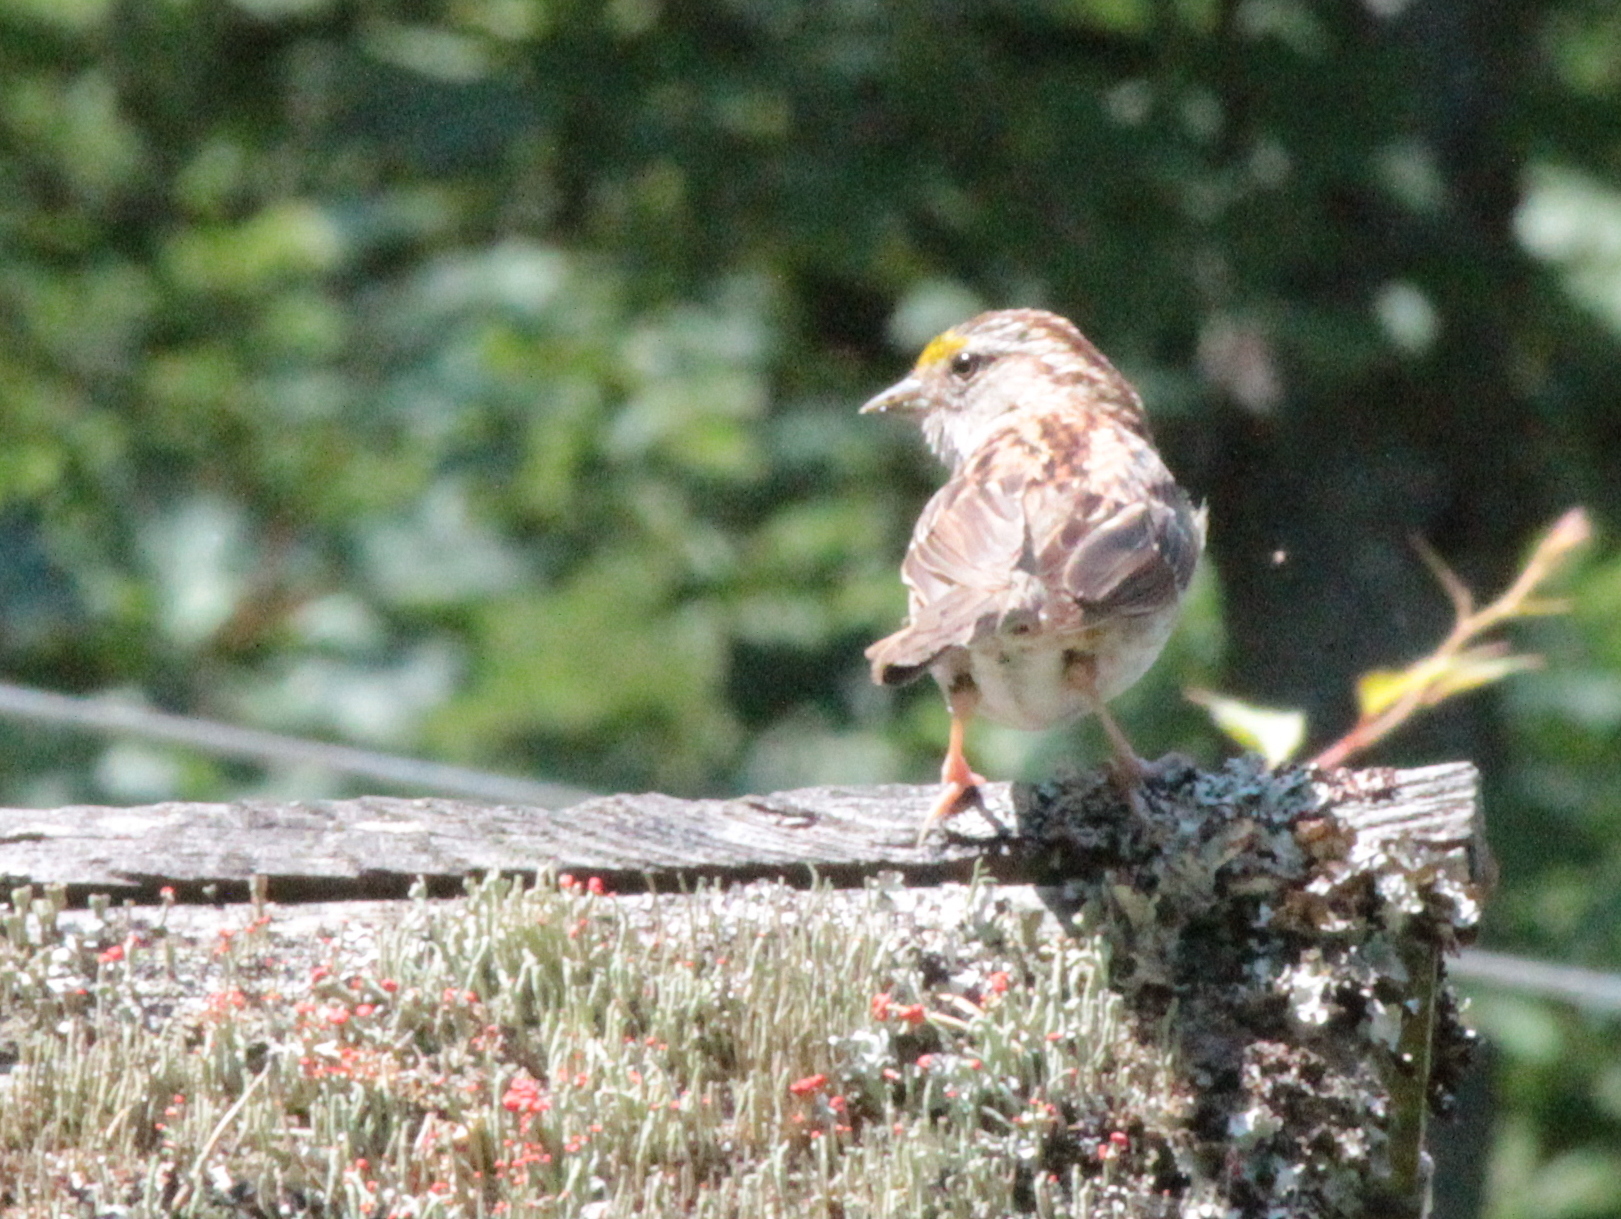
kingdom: Animalia
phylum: Chordata
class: Aves
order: Passeriformes
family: Passerellidae
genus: Zonotrichia
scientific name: Zonotrichia albicollis
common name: White-throated sparrow
